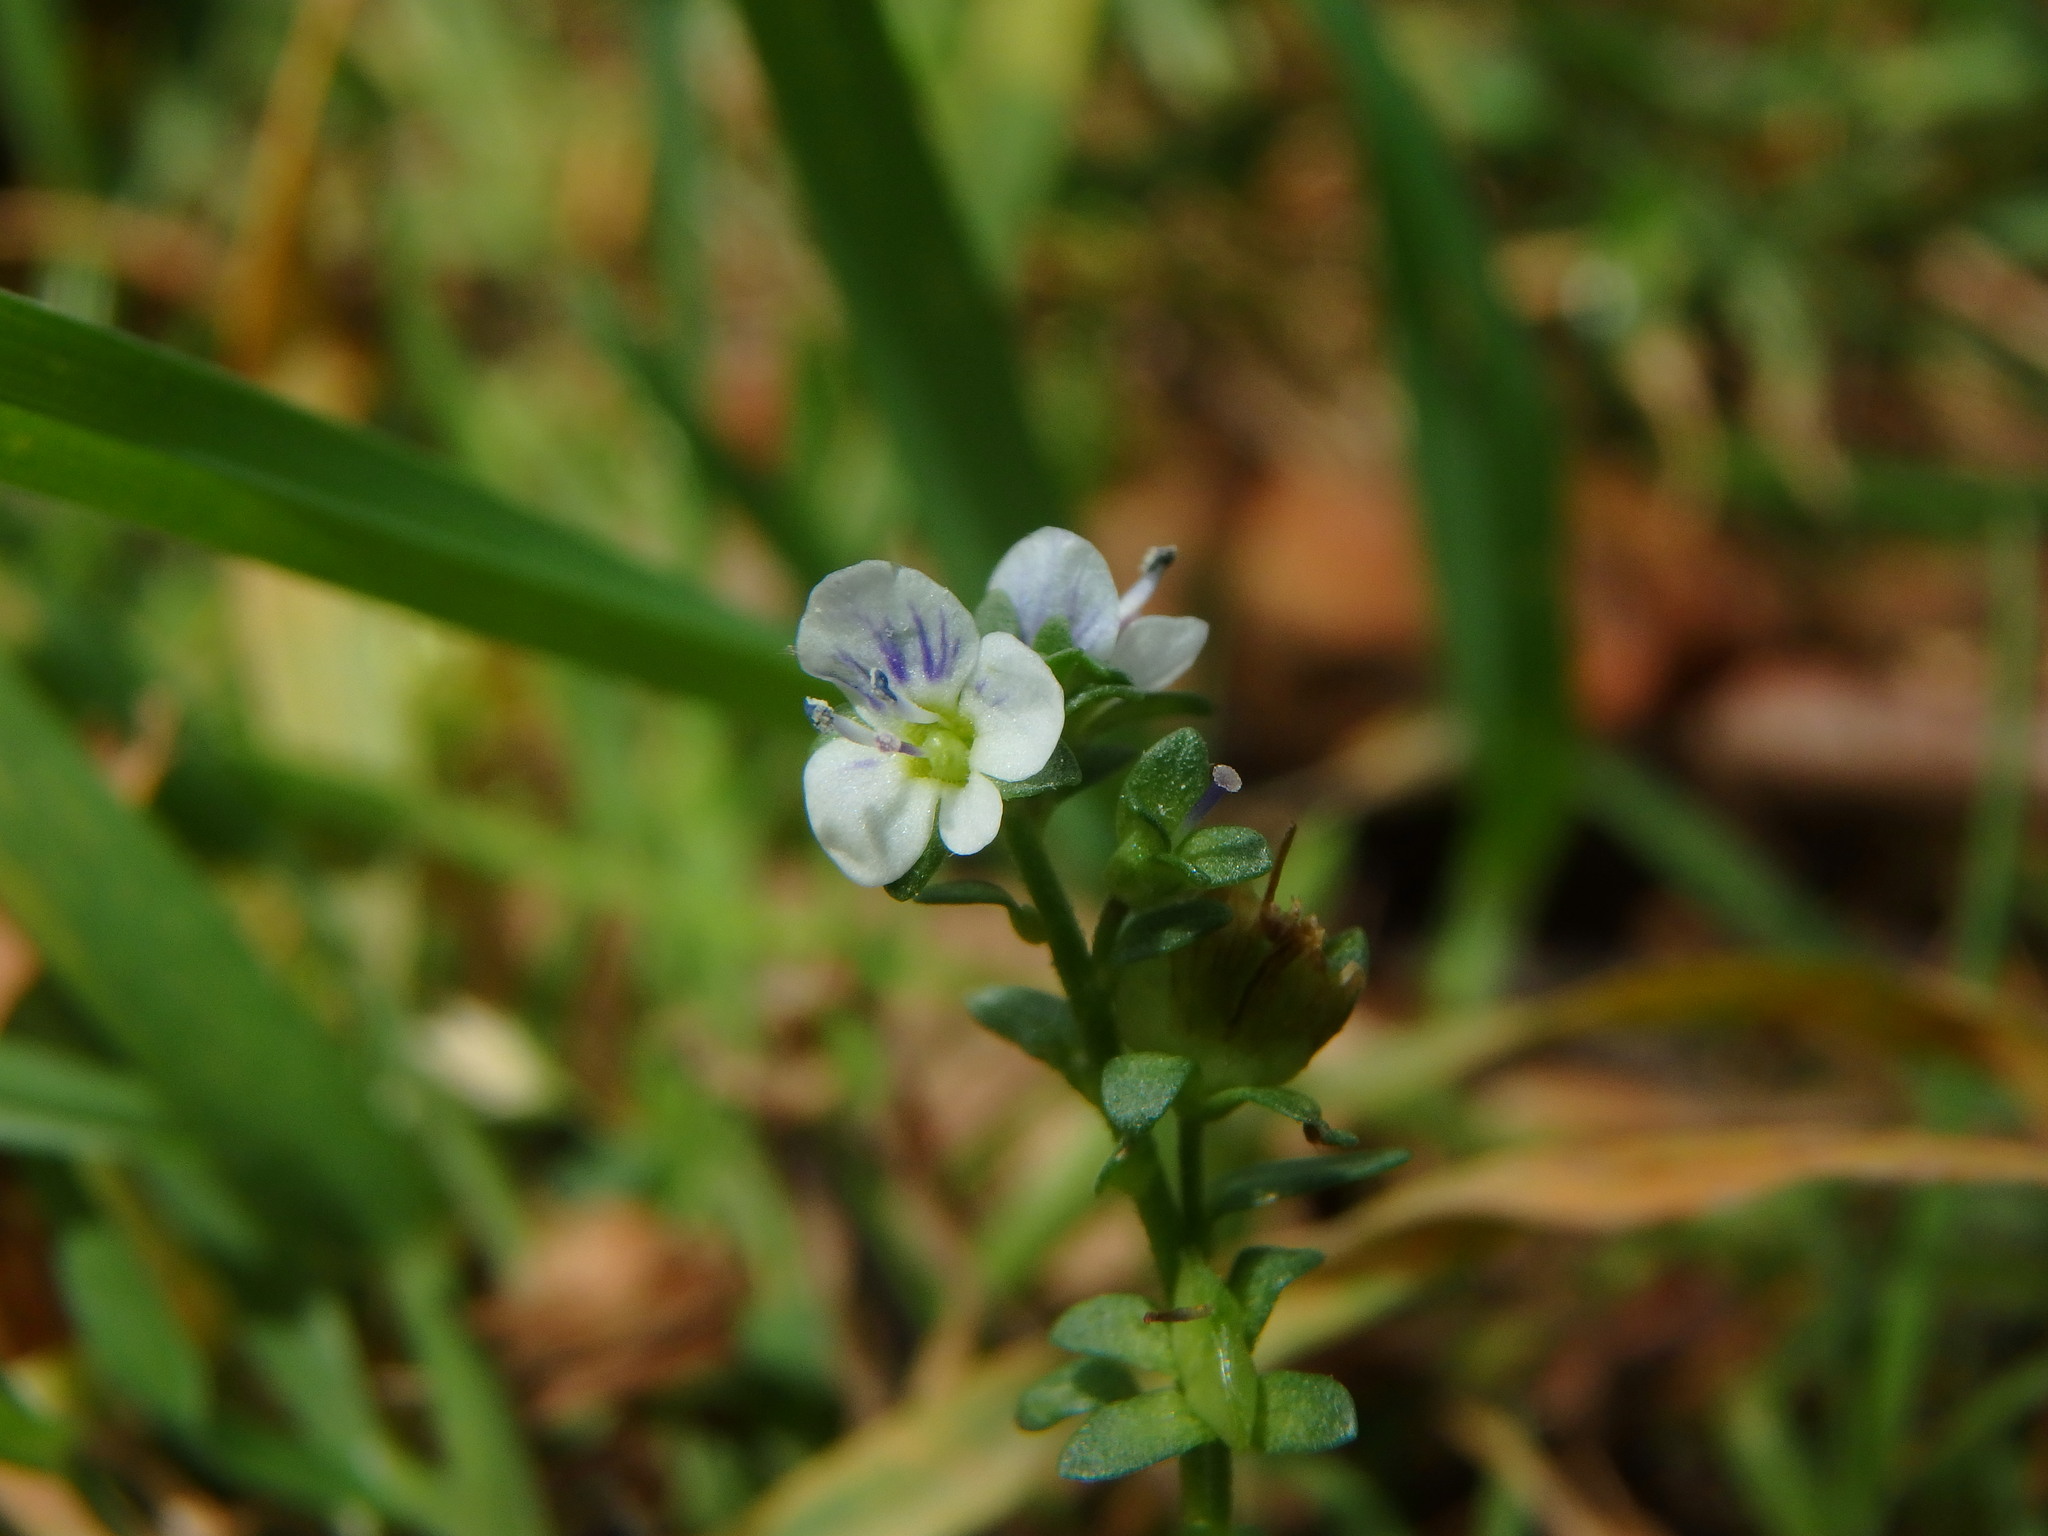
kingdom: Plantae
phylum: Tracheophyta
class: Magnoliopsida
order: Lamiales
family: Plantaginaceae
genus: Veronica
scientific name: Veronica serpyllifolia
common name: Thyme-leaved speedwell
